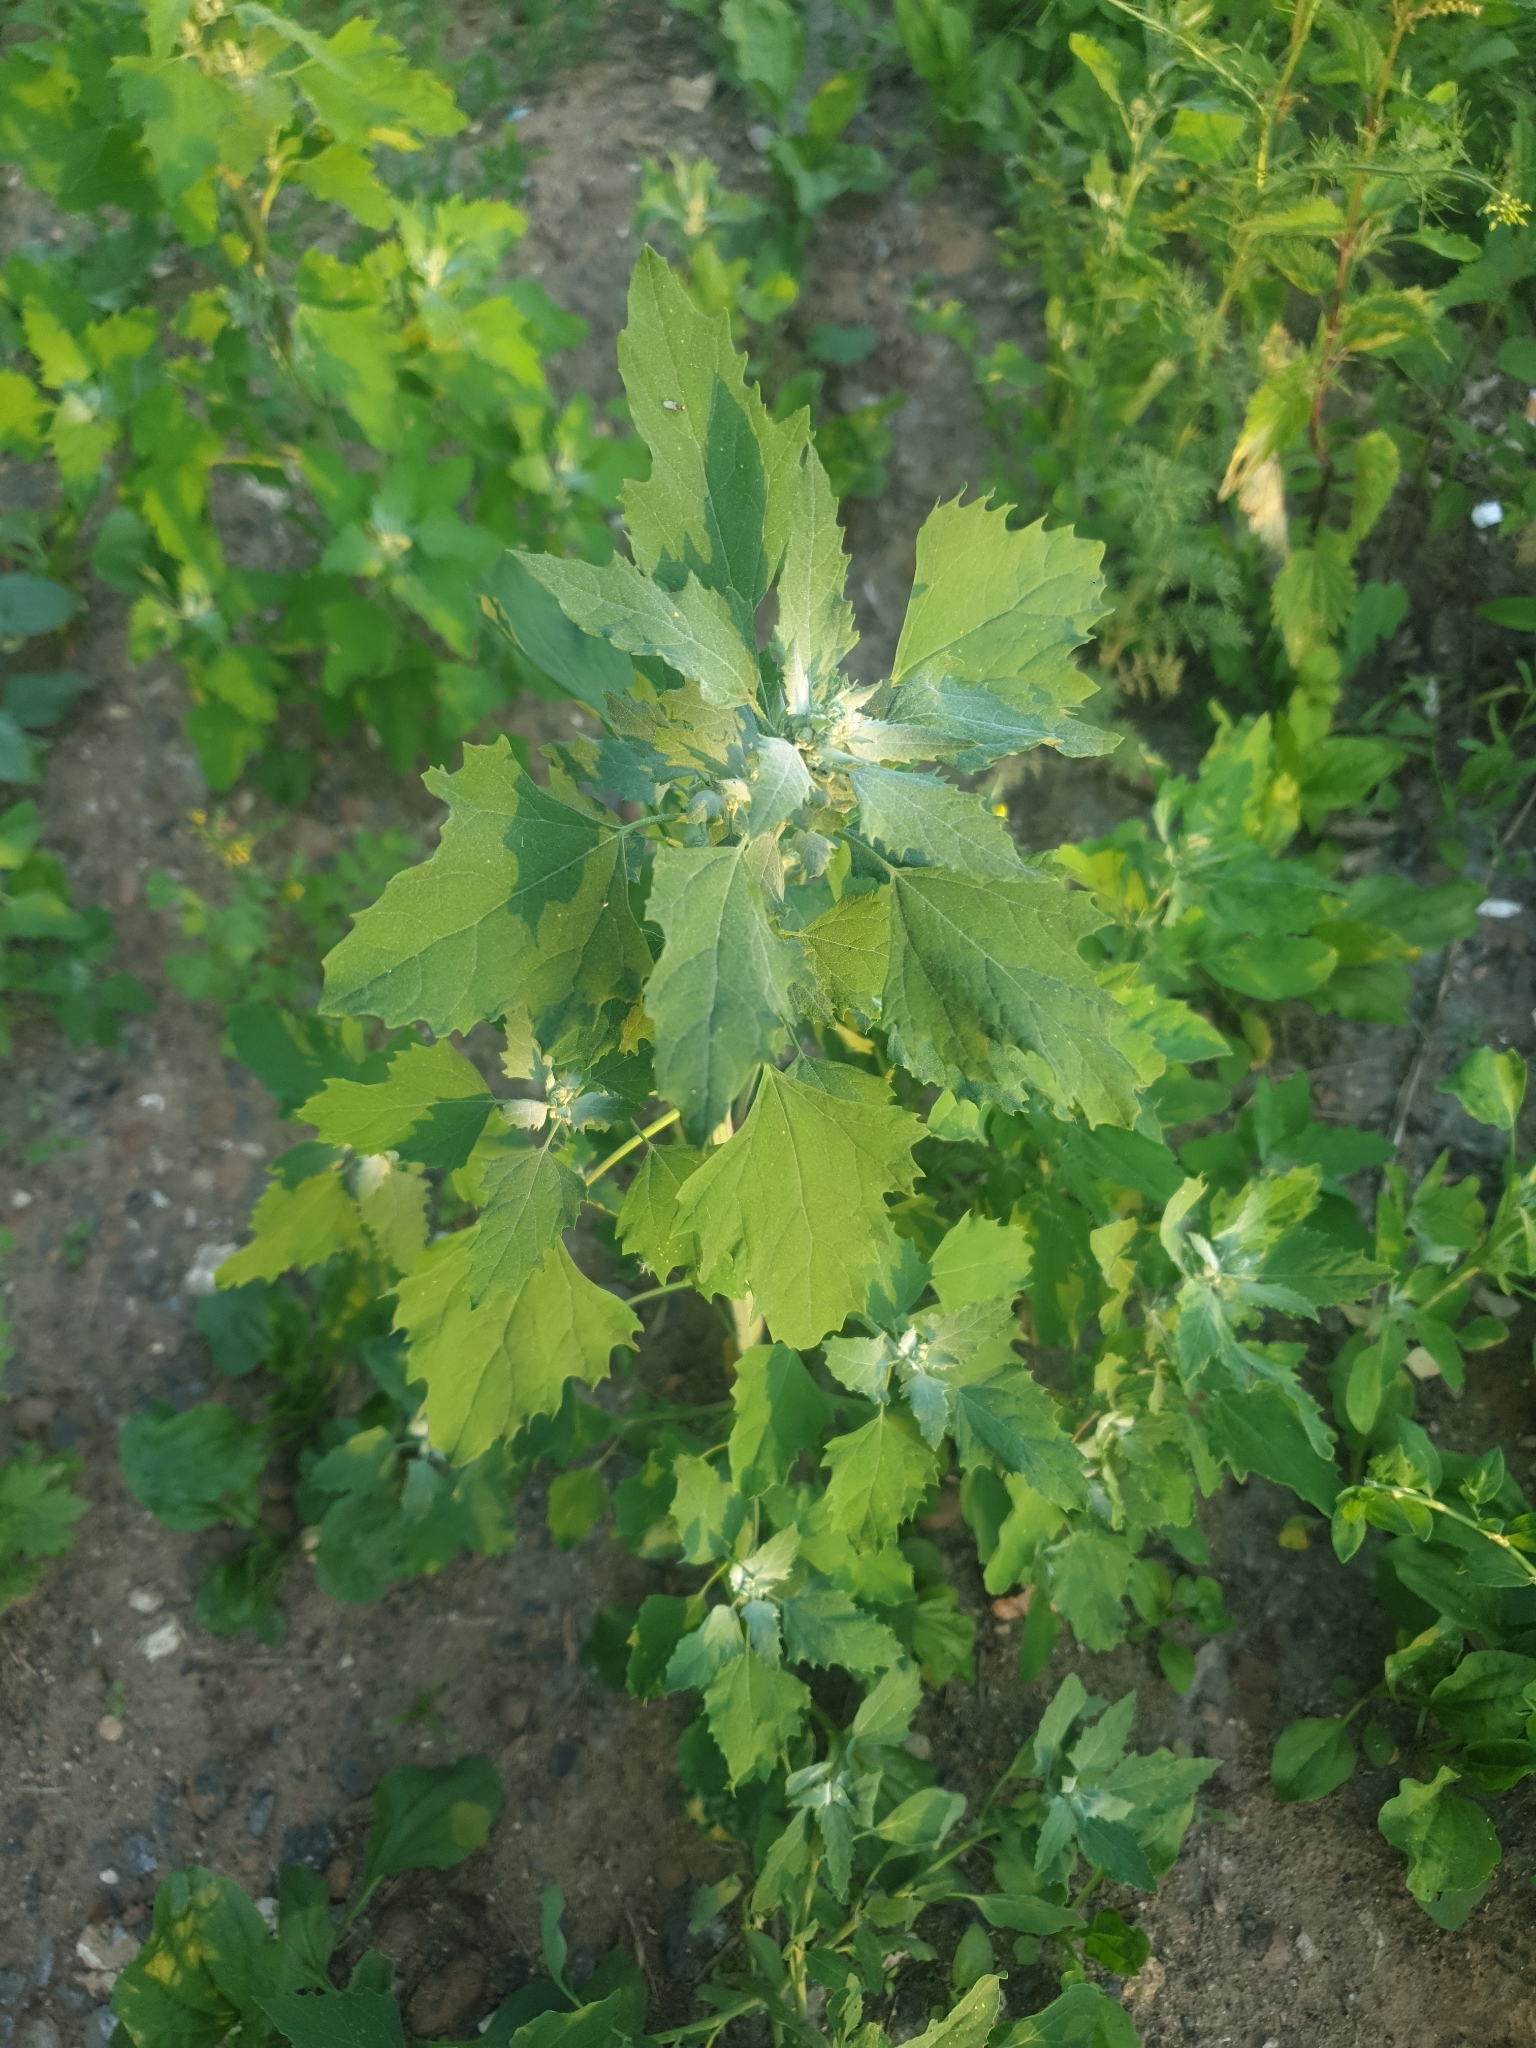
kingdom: Plantae
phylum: Tracheophyta
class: Magnoliopsida
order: Caryophyllales
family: Amaranthaceae
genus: Chenopodium
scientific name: Chenopodium album
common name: Fat-hen
